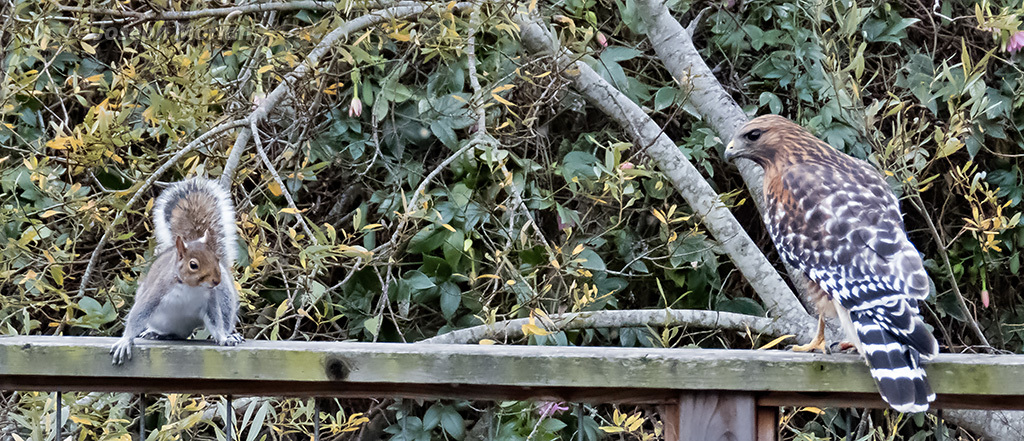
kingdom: Animalia
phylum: Chordata
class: Aves
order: Accipitriformes
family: Accipitridae
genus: Buteo
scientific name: Buteo lineatus
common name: Red-shouldered hawk
